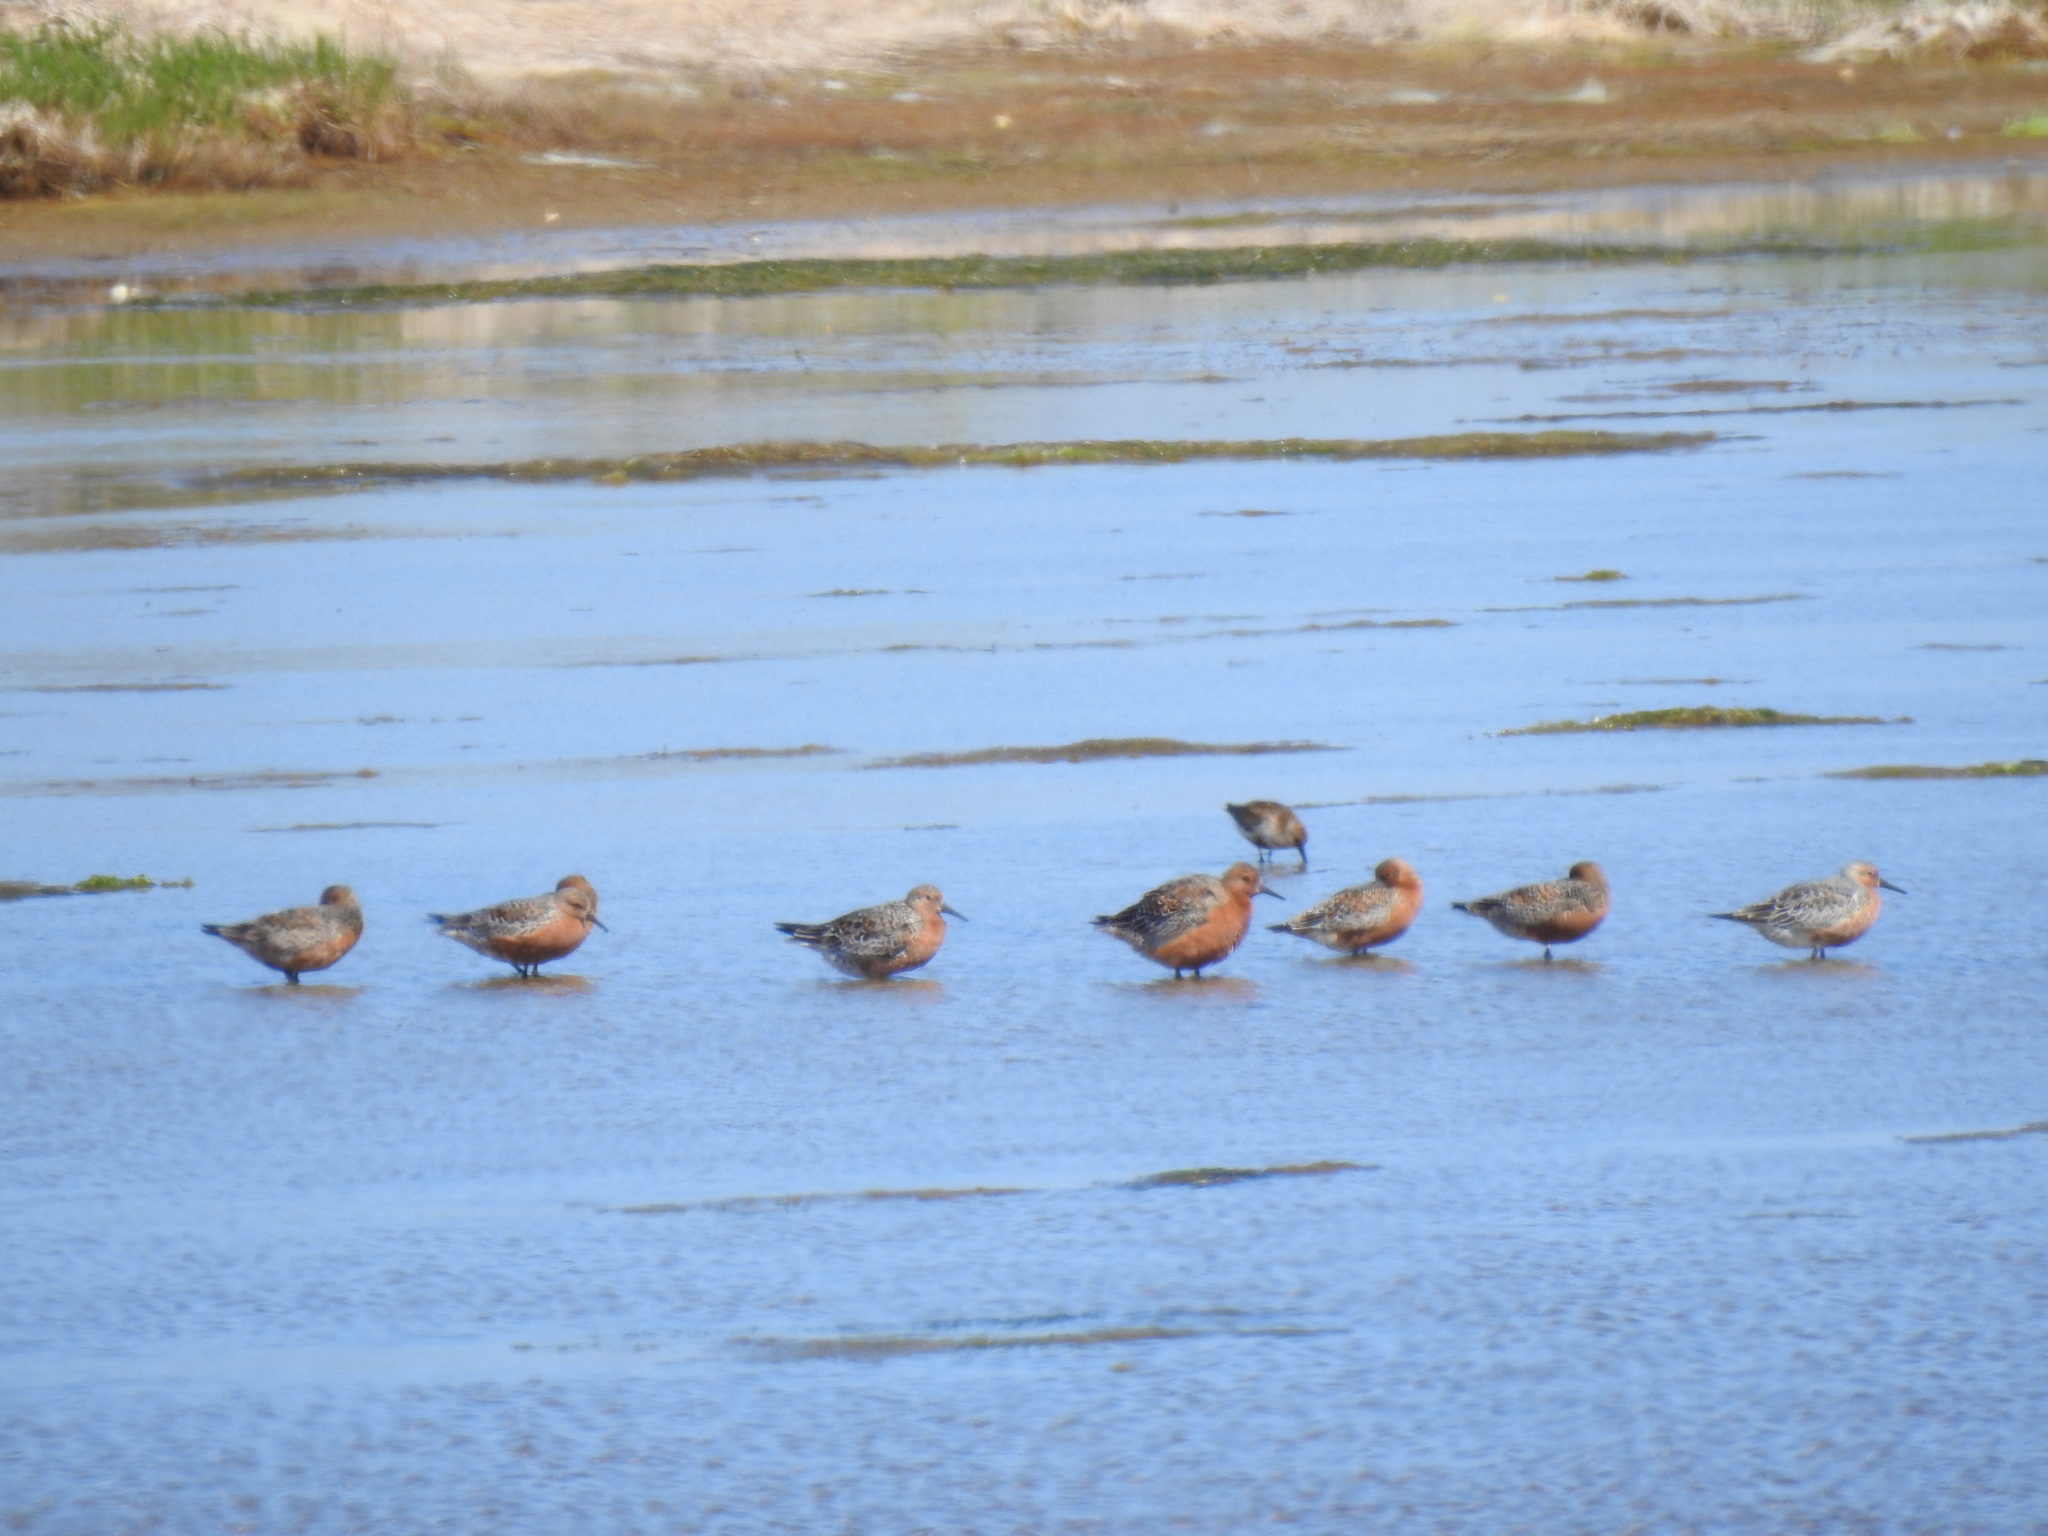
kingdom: Animalia
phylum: Chordata
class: Aves
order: Charadriiformes
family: Scolopacidae
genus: Calidris
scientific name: Calidris canutus
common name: Red knot
